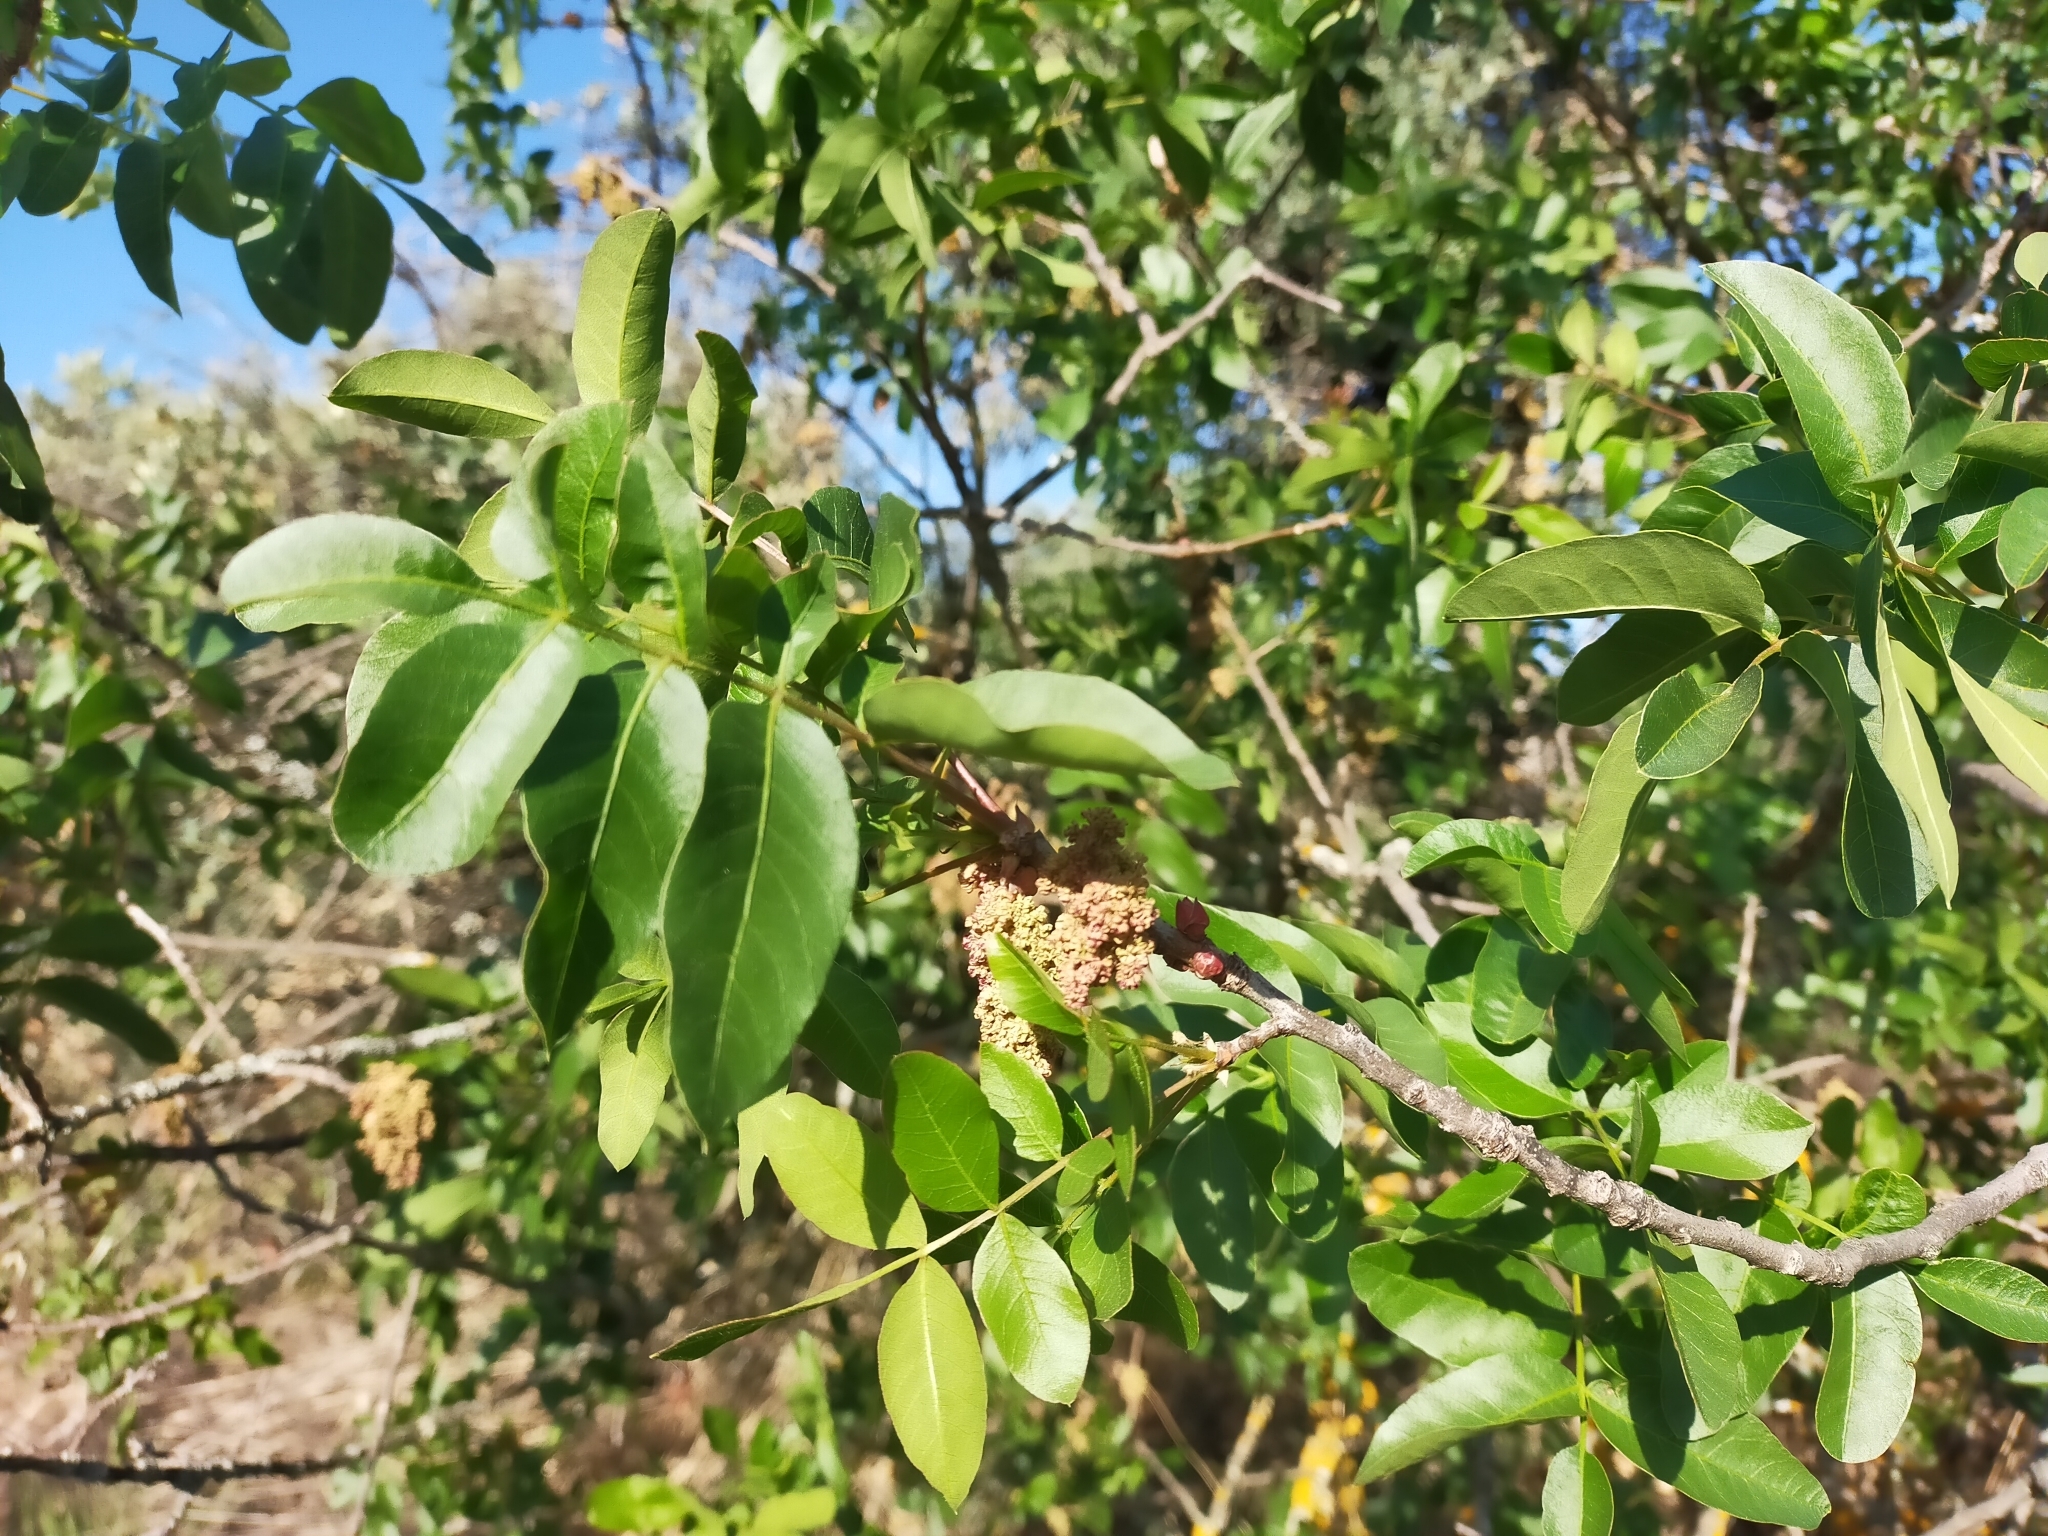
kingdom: Plantae
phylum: Tracheophyta
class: Magnoliopsida
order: Sapindales
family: Anacardiaceae
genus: Pistacia
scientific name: Pistacia terebinthus
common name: Terebinth
